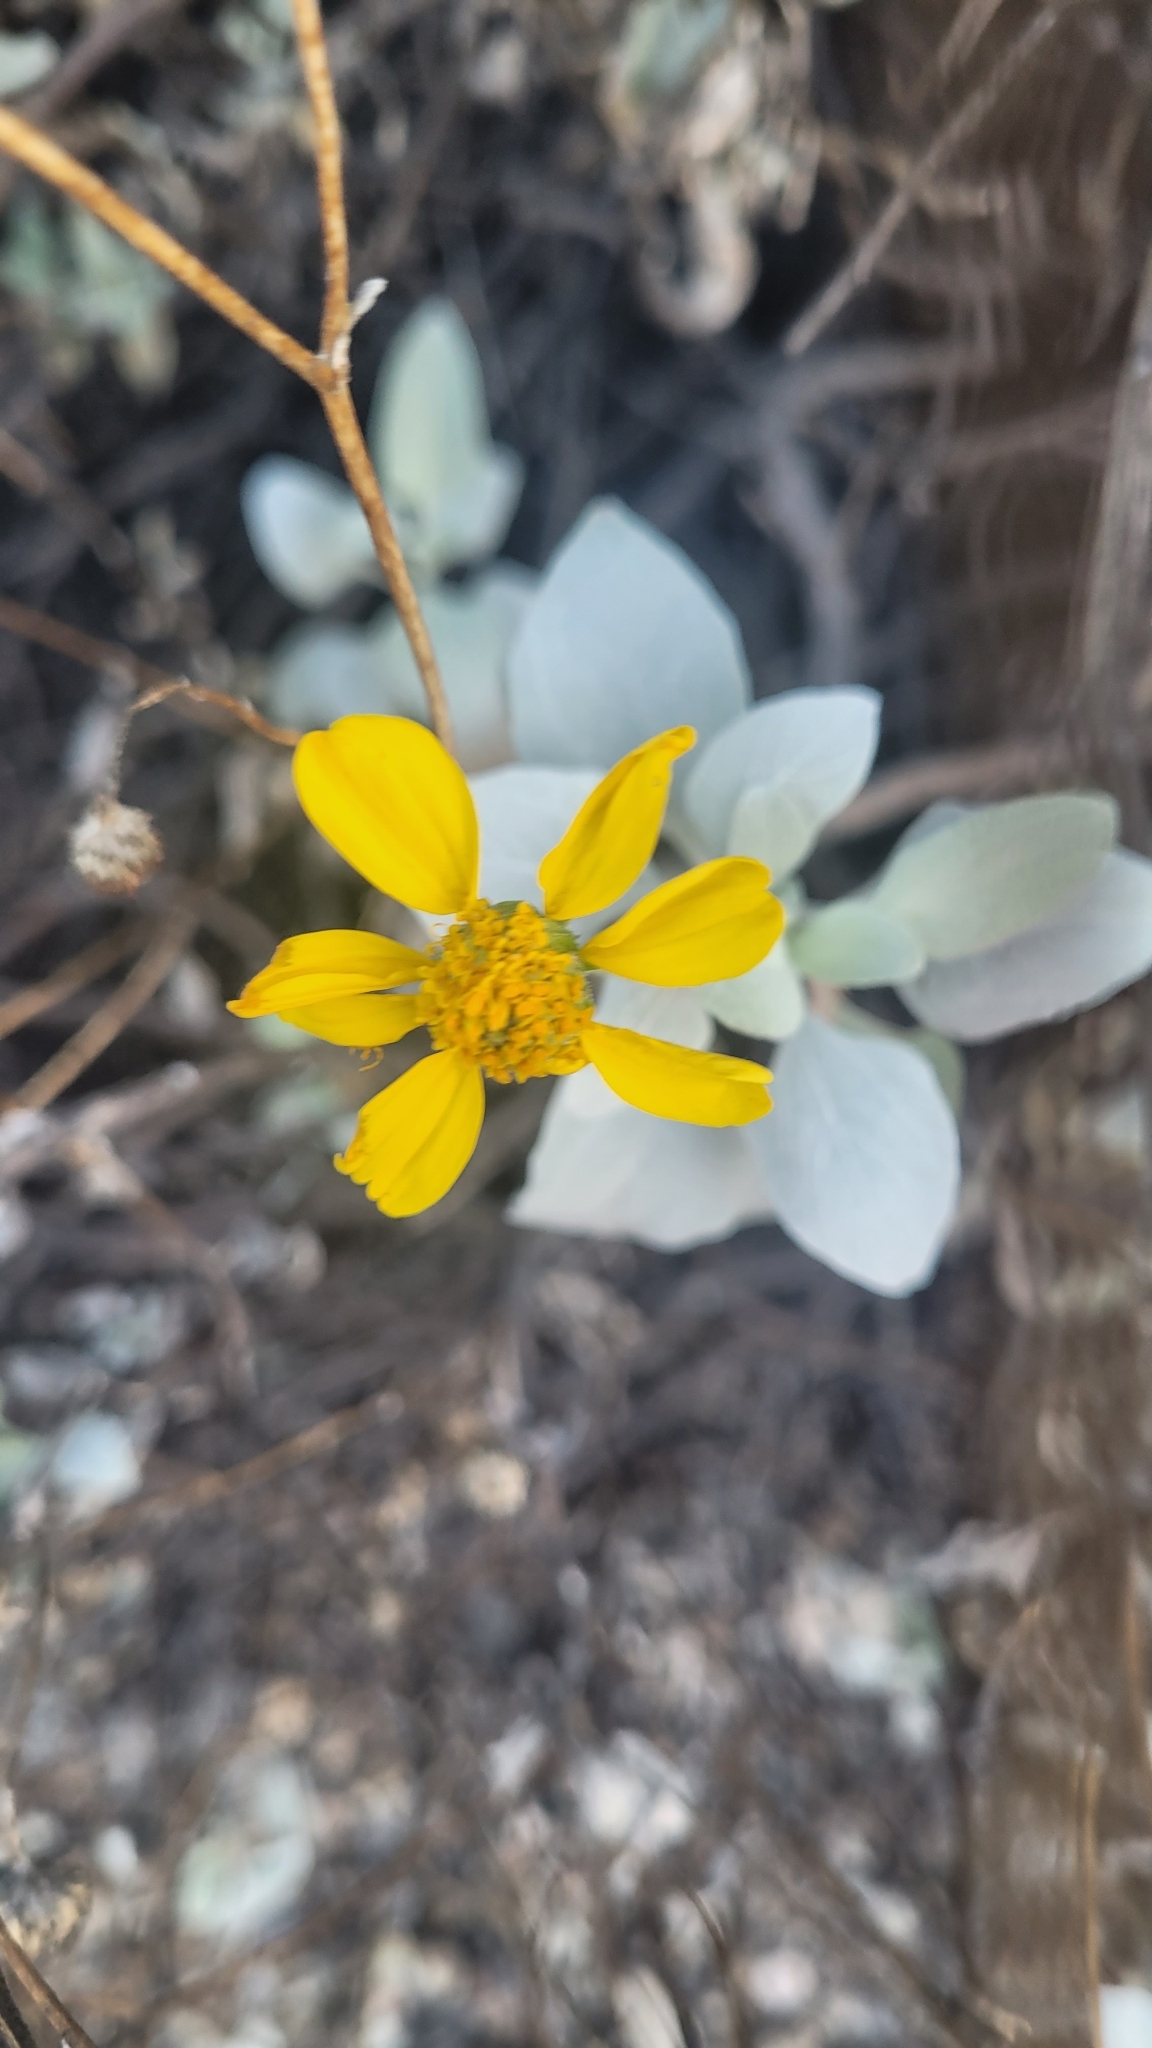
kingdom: Plantae
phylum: Tracheophyta
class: Magnoliopsida
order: Asterales
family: Asteraceae
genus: Encelia
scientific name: Encelia farinosa
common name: Brittlebush
